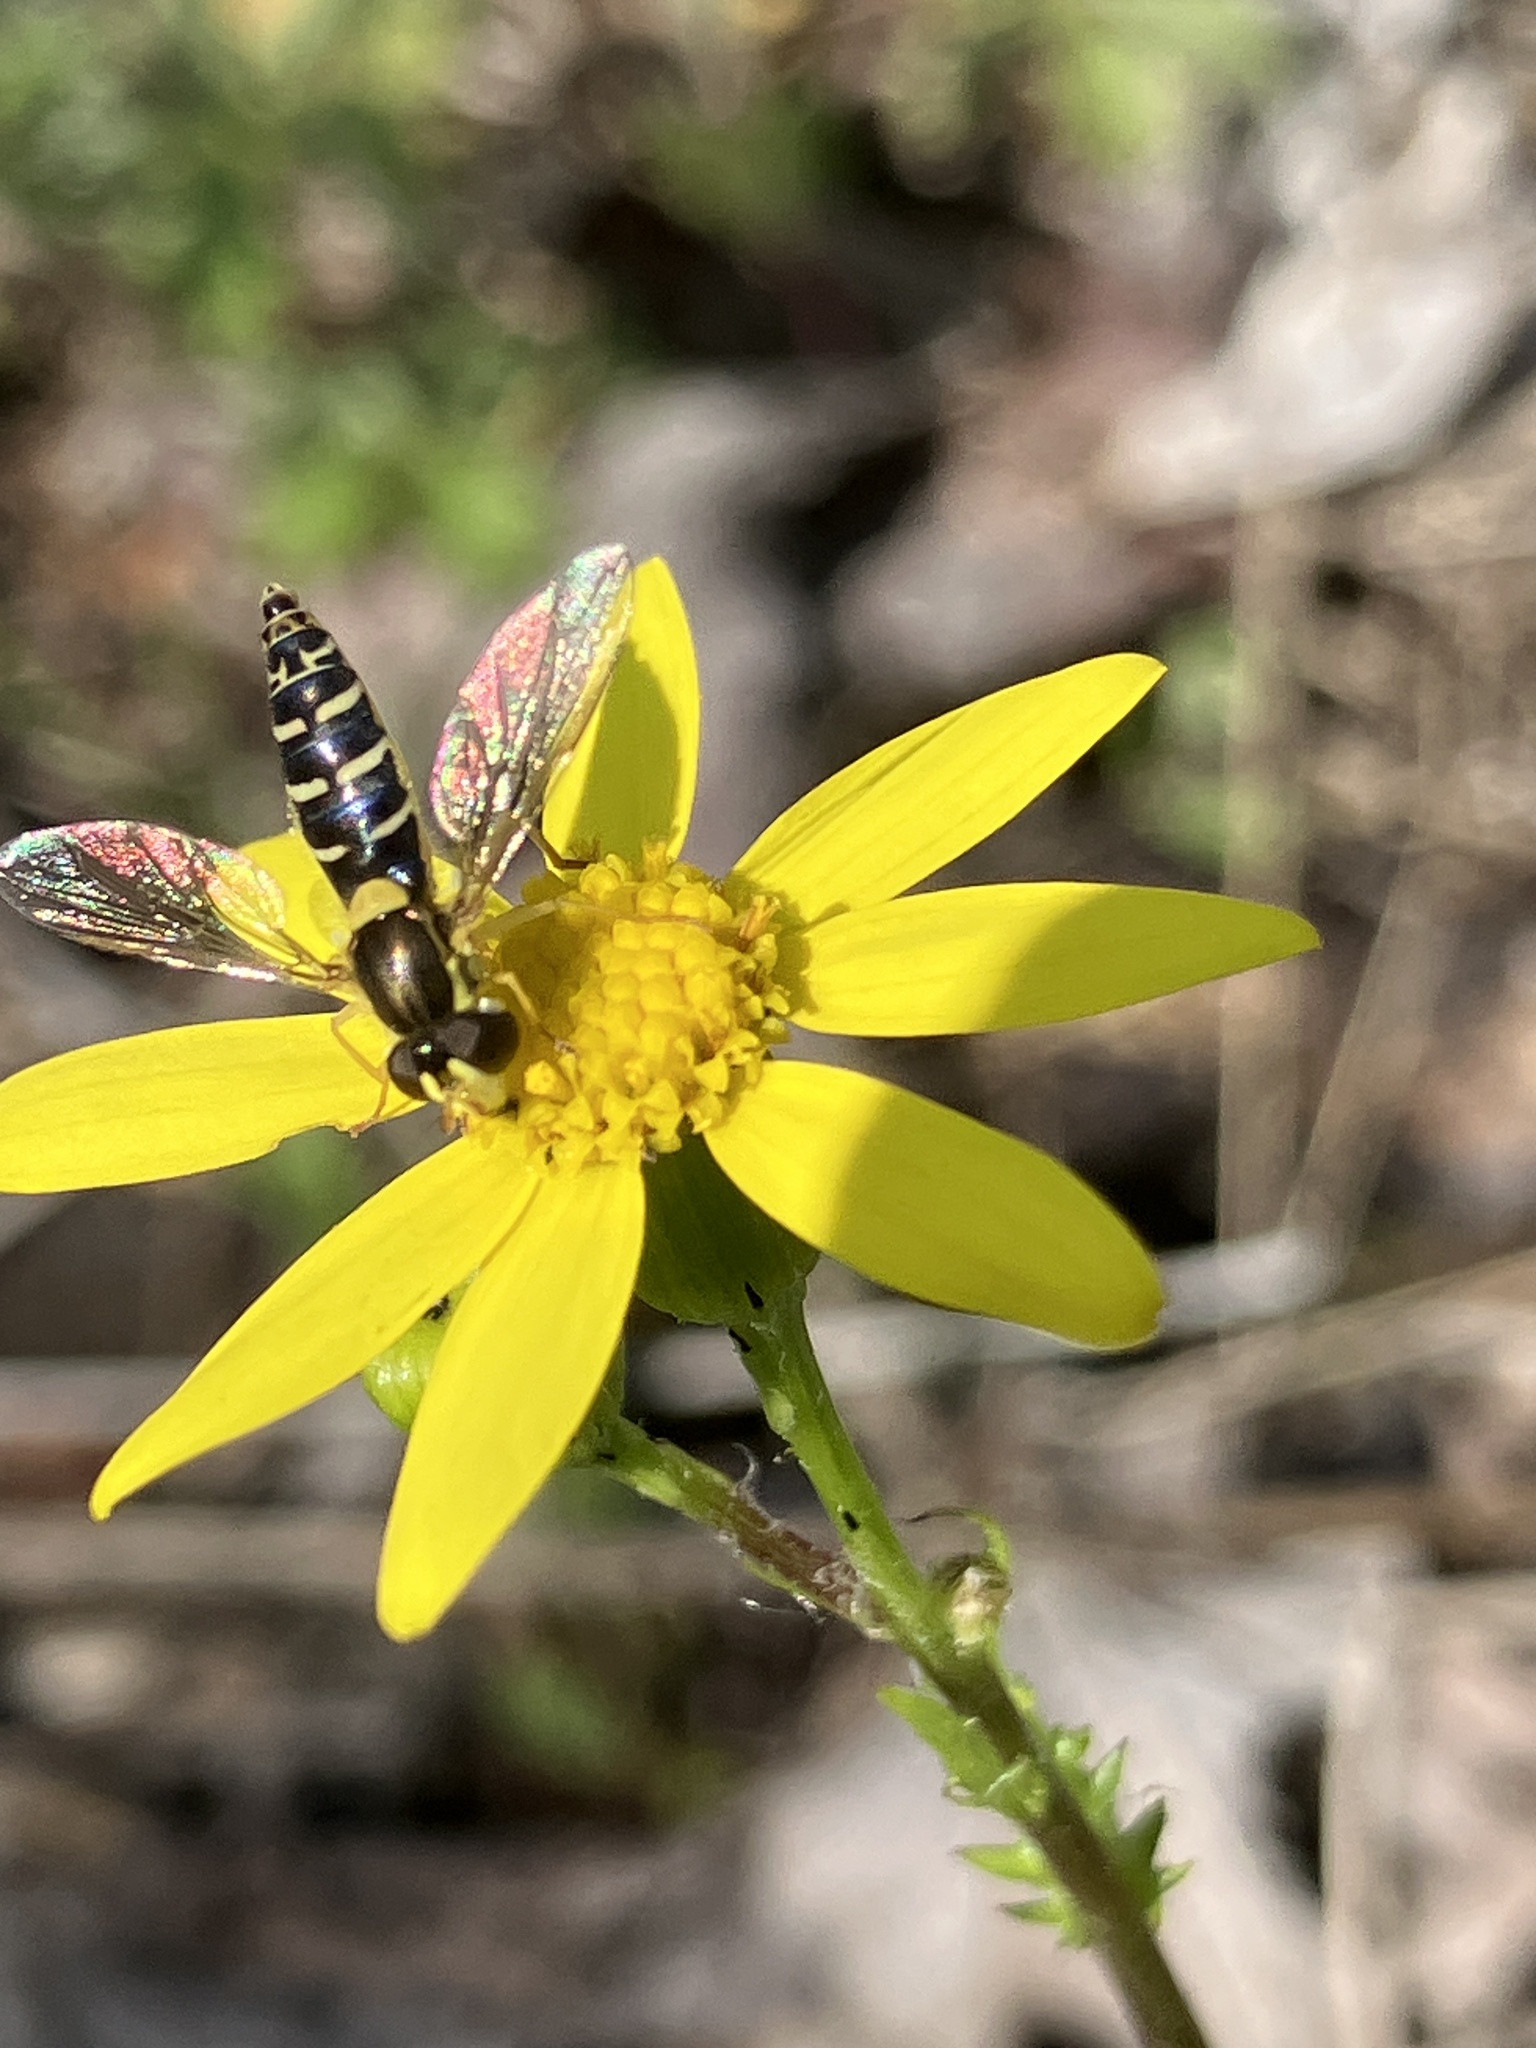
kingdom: Animalia
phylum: Arthropoda
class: Insecta
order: Diptera
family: Syrphidae
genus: Sphaerophoria
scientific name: Sphaerophoria
